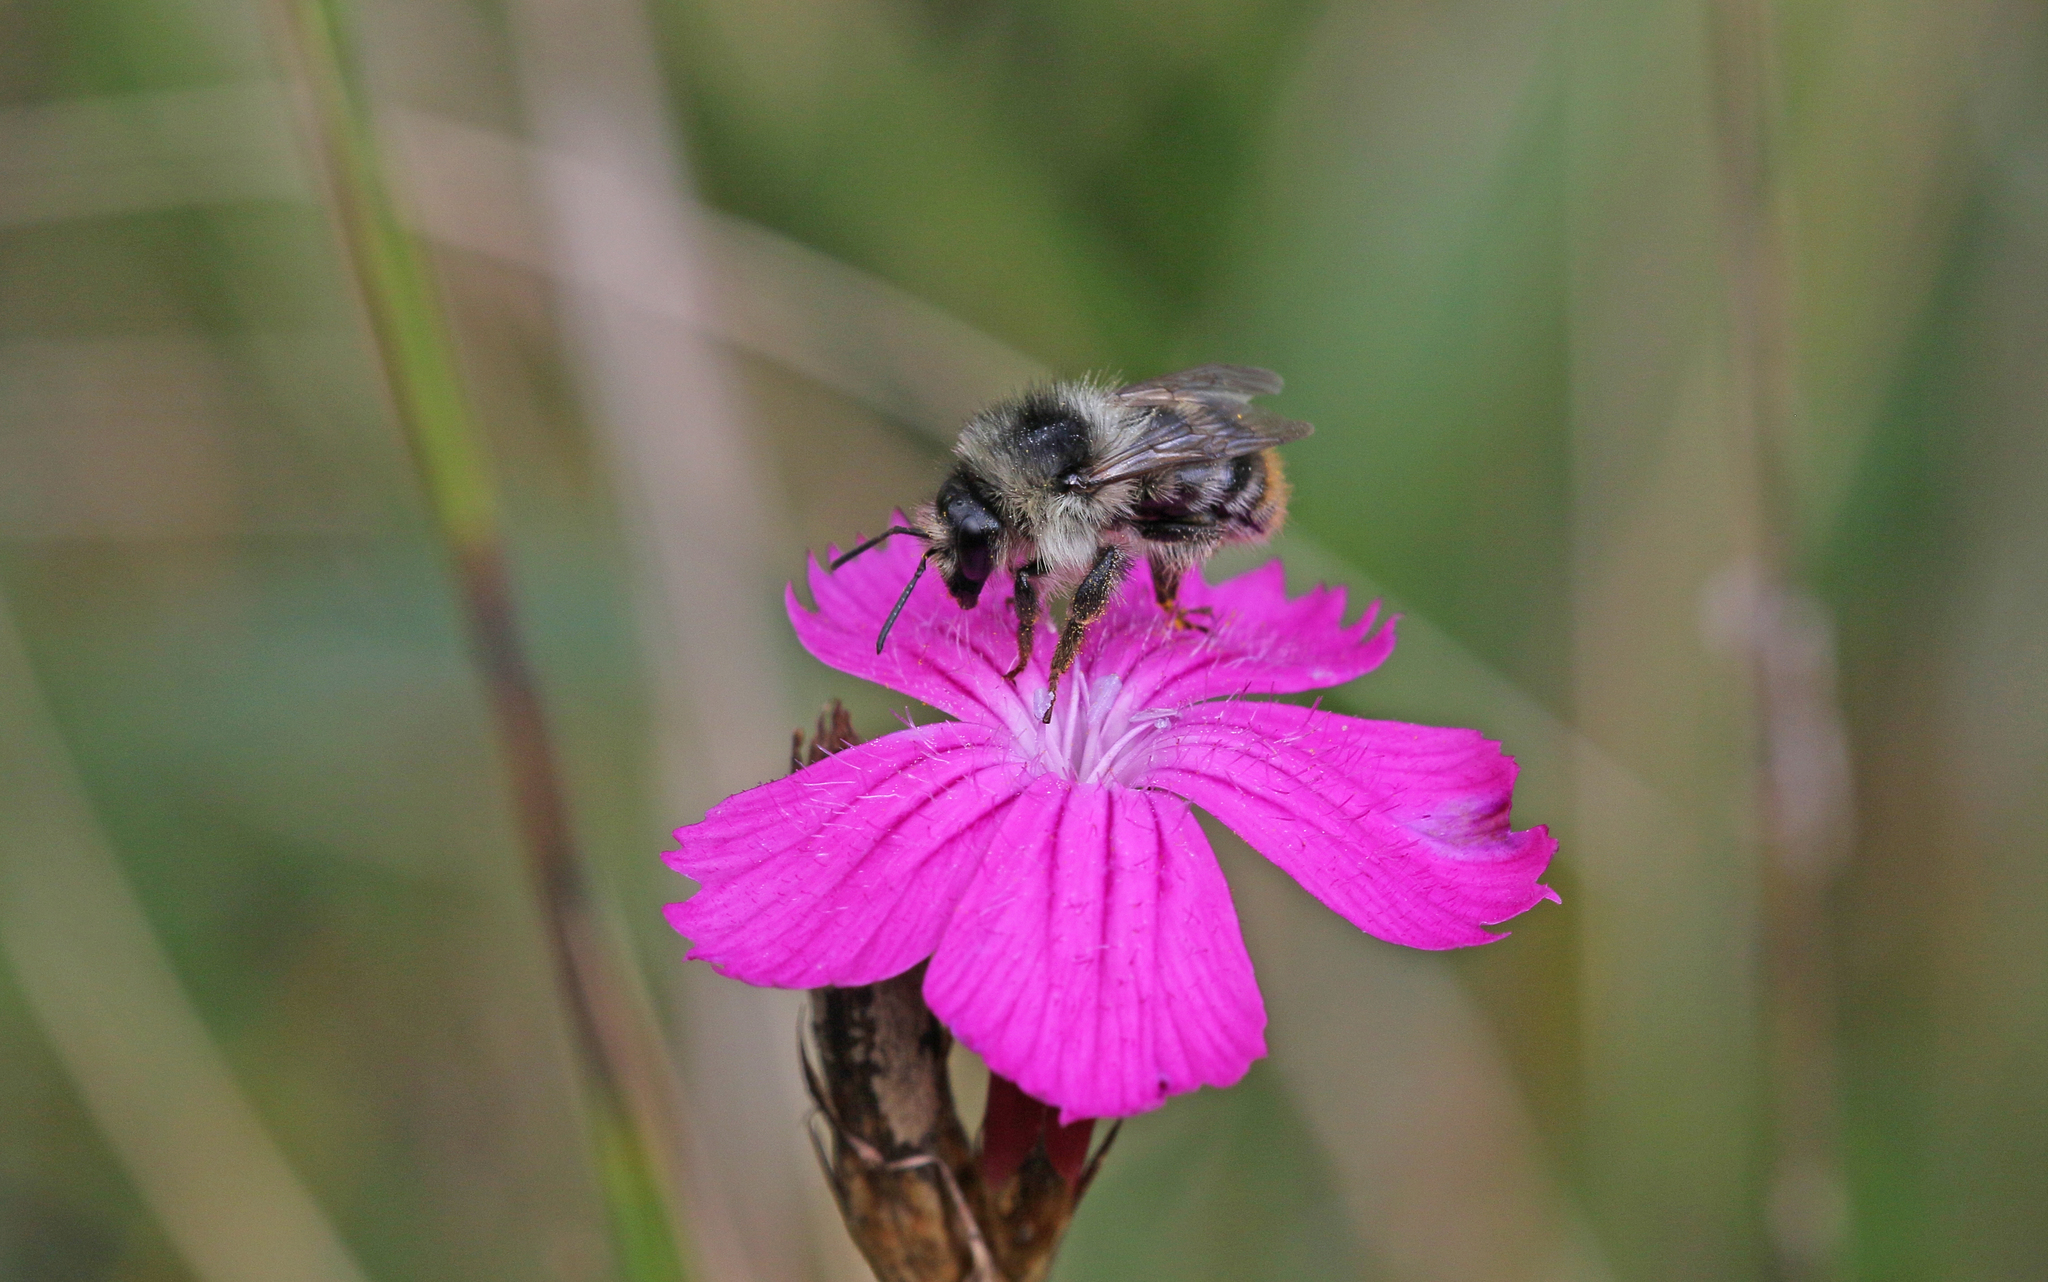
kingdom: Animalia
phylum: Arthropoda
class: Insecta
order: Hymenoptera
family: Apidae
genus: Bombus
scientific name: Bombus sylvarum
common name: Shrill carder bee
